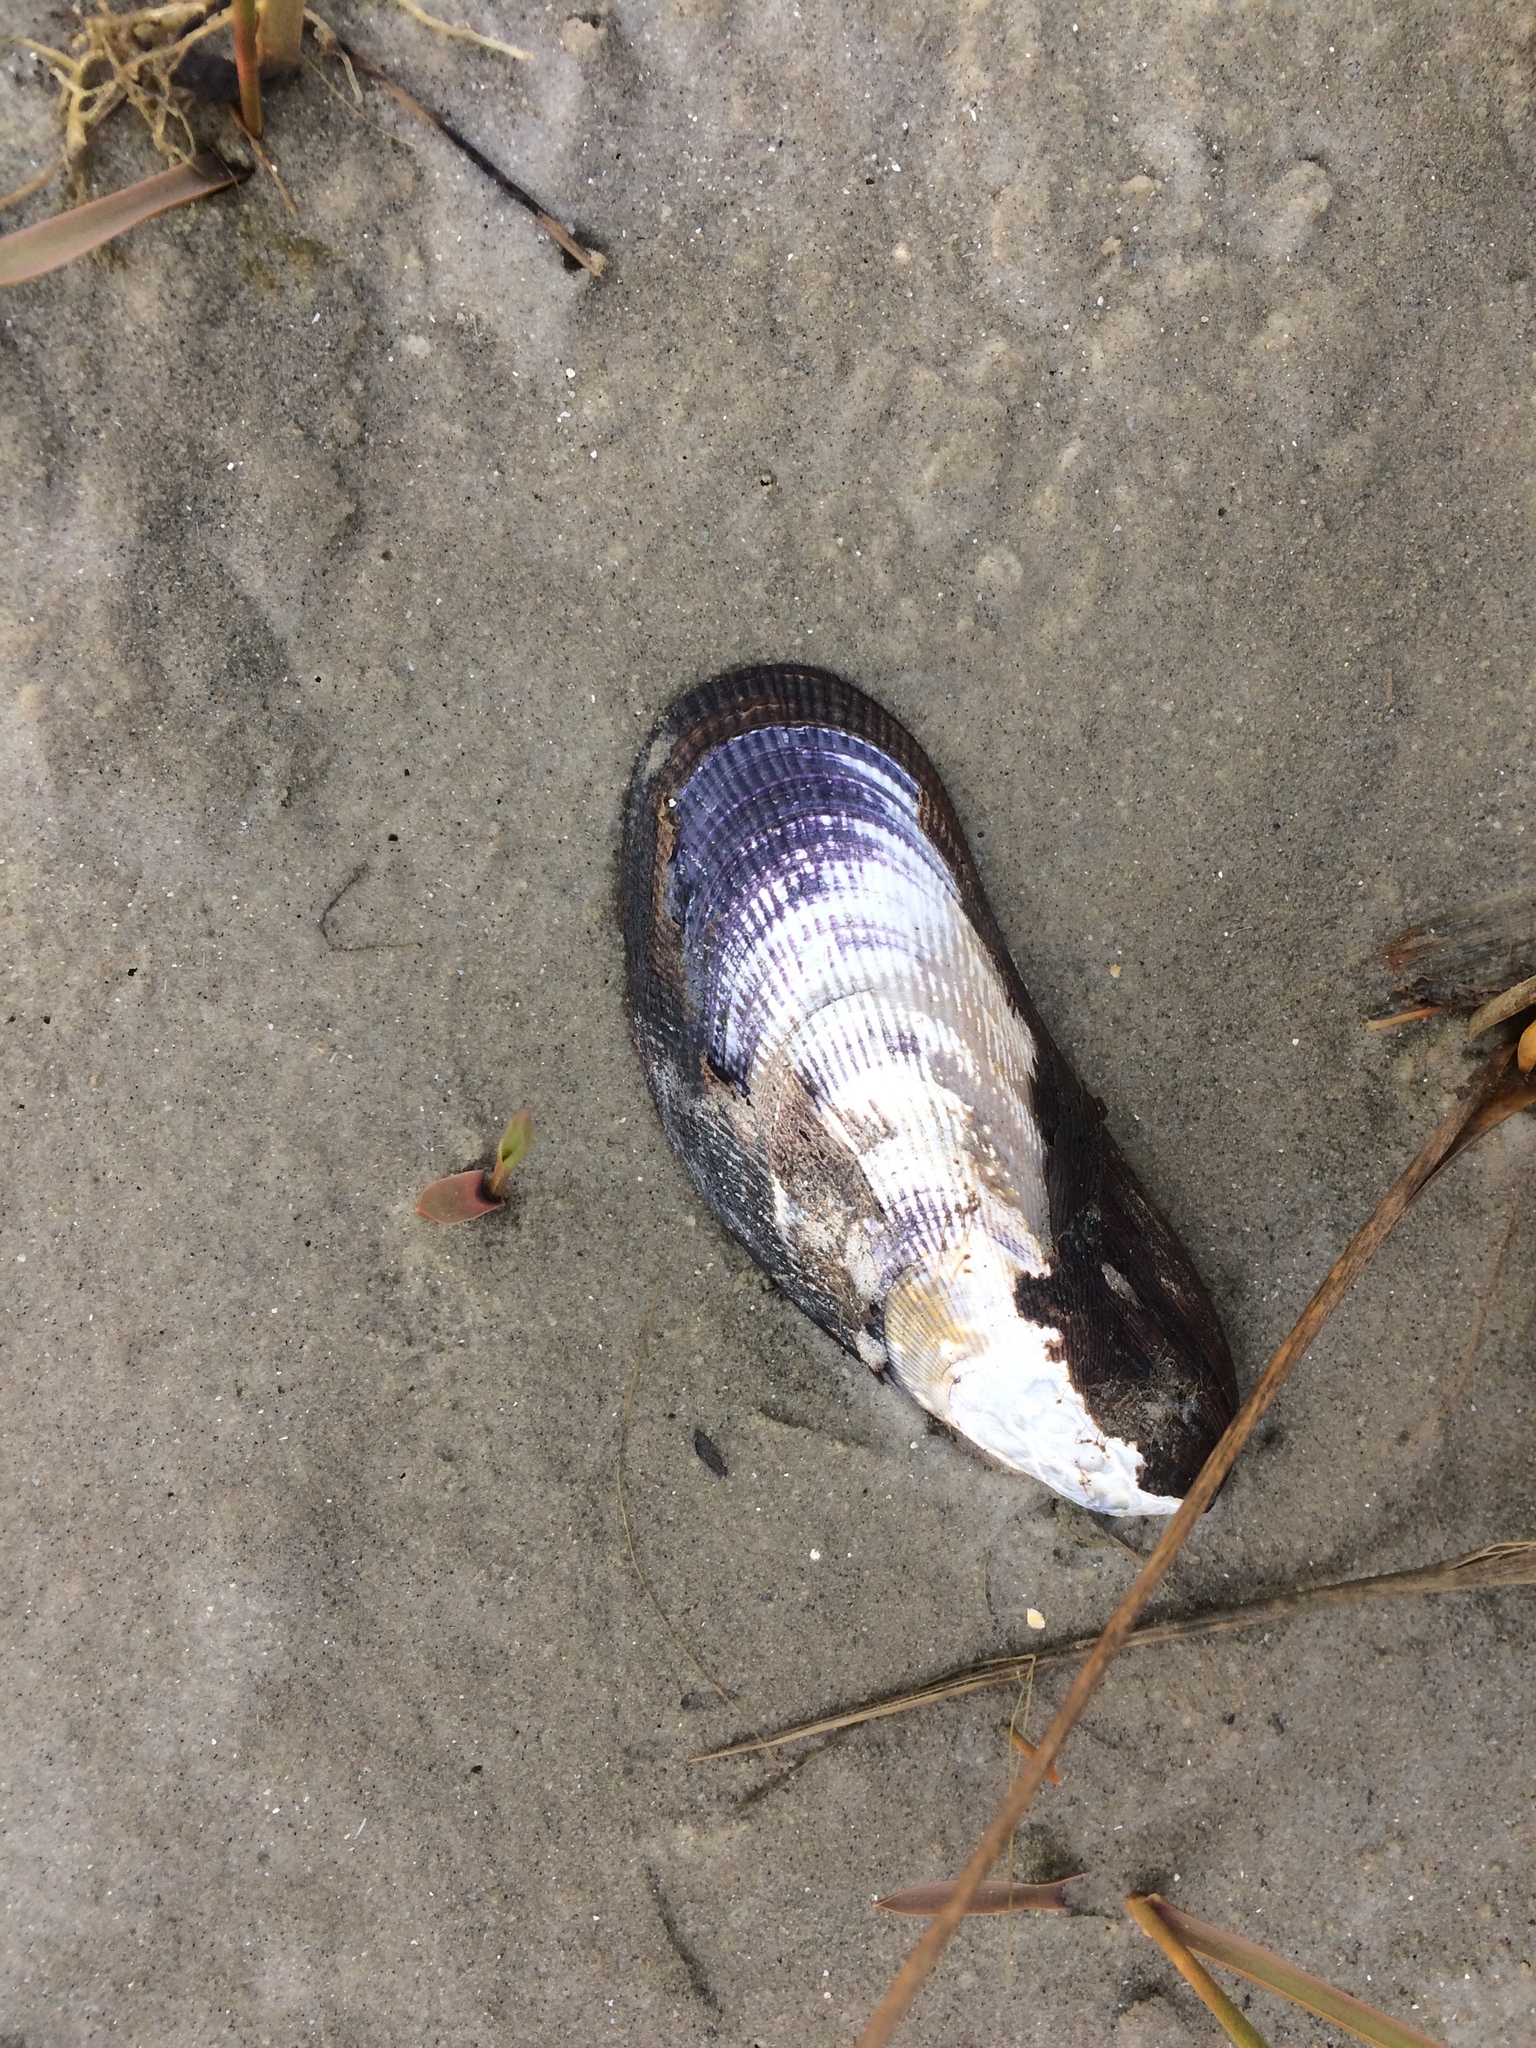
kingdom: Animalia
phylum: Mollusca
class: Bivalvia
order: Mytilida
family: Mytilidae
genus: Geukensia
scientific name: Geukensia demissa
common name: Ribbed mussel
